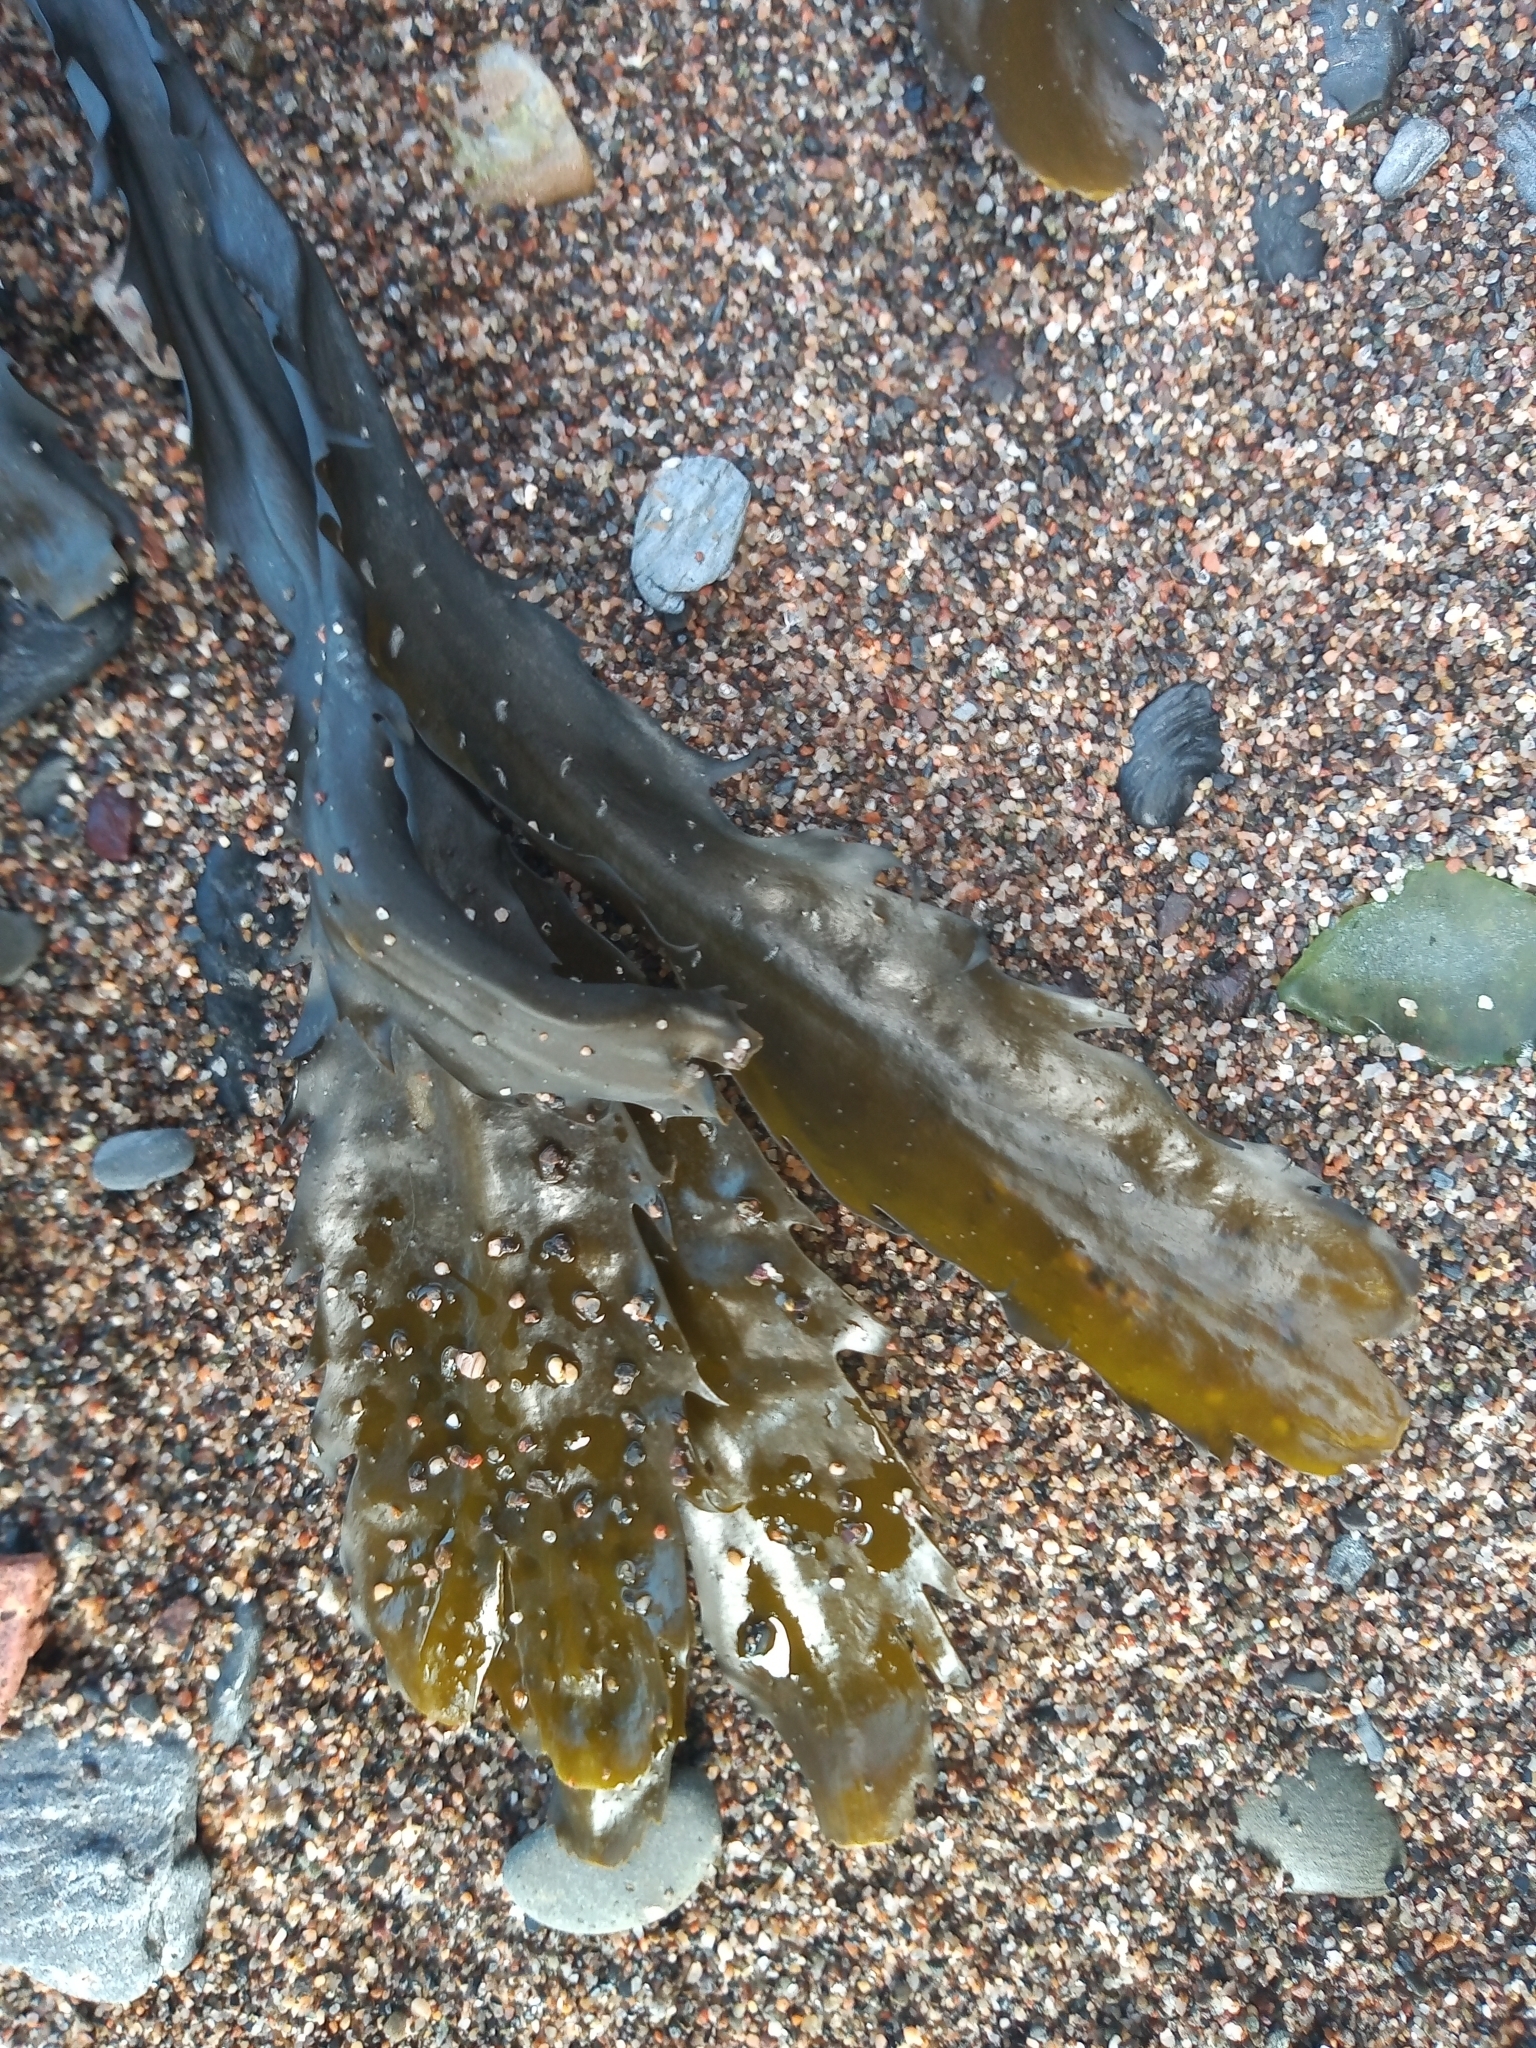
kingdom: Chromista
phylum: Ochrophyta
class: Phaeophyceae
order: Fucales
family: Fucaceae
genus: Fucus
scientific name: Fucus serratus
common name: Toothed wrack
